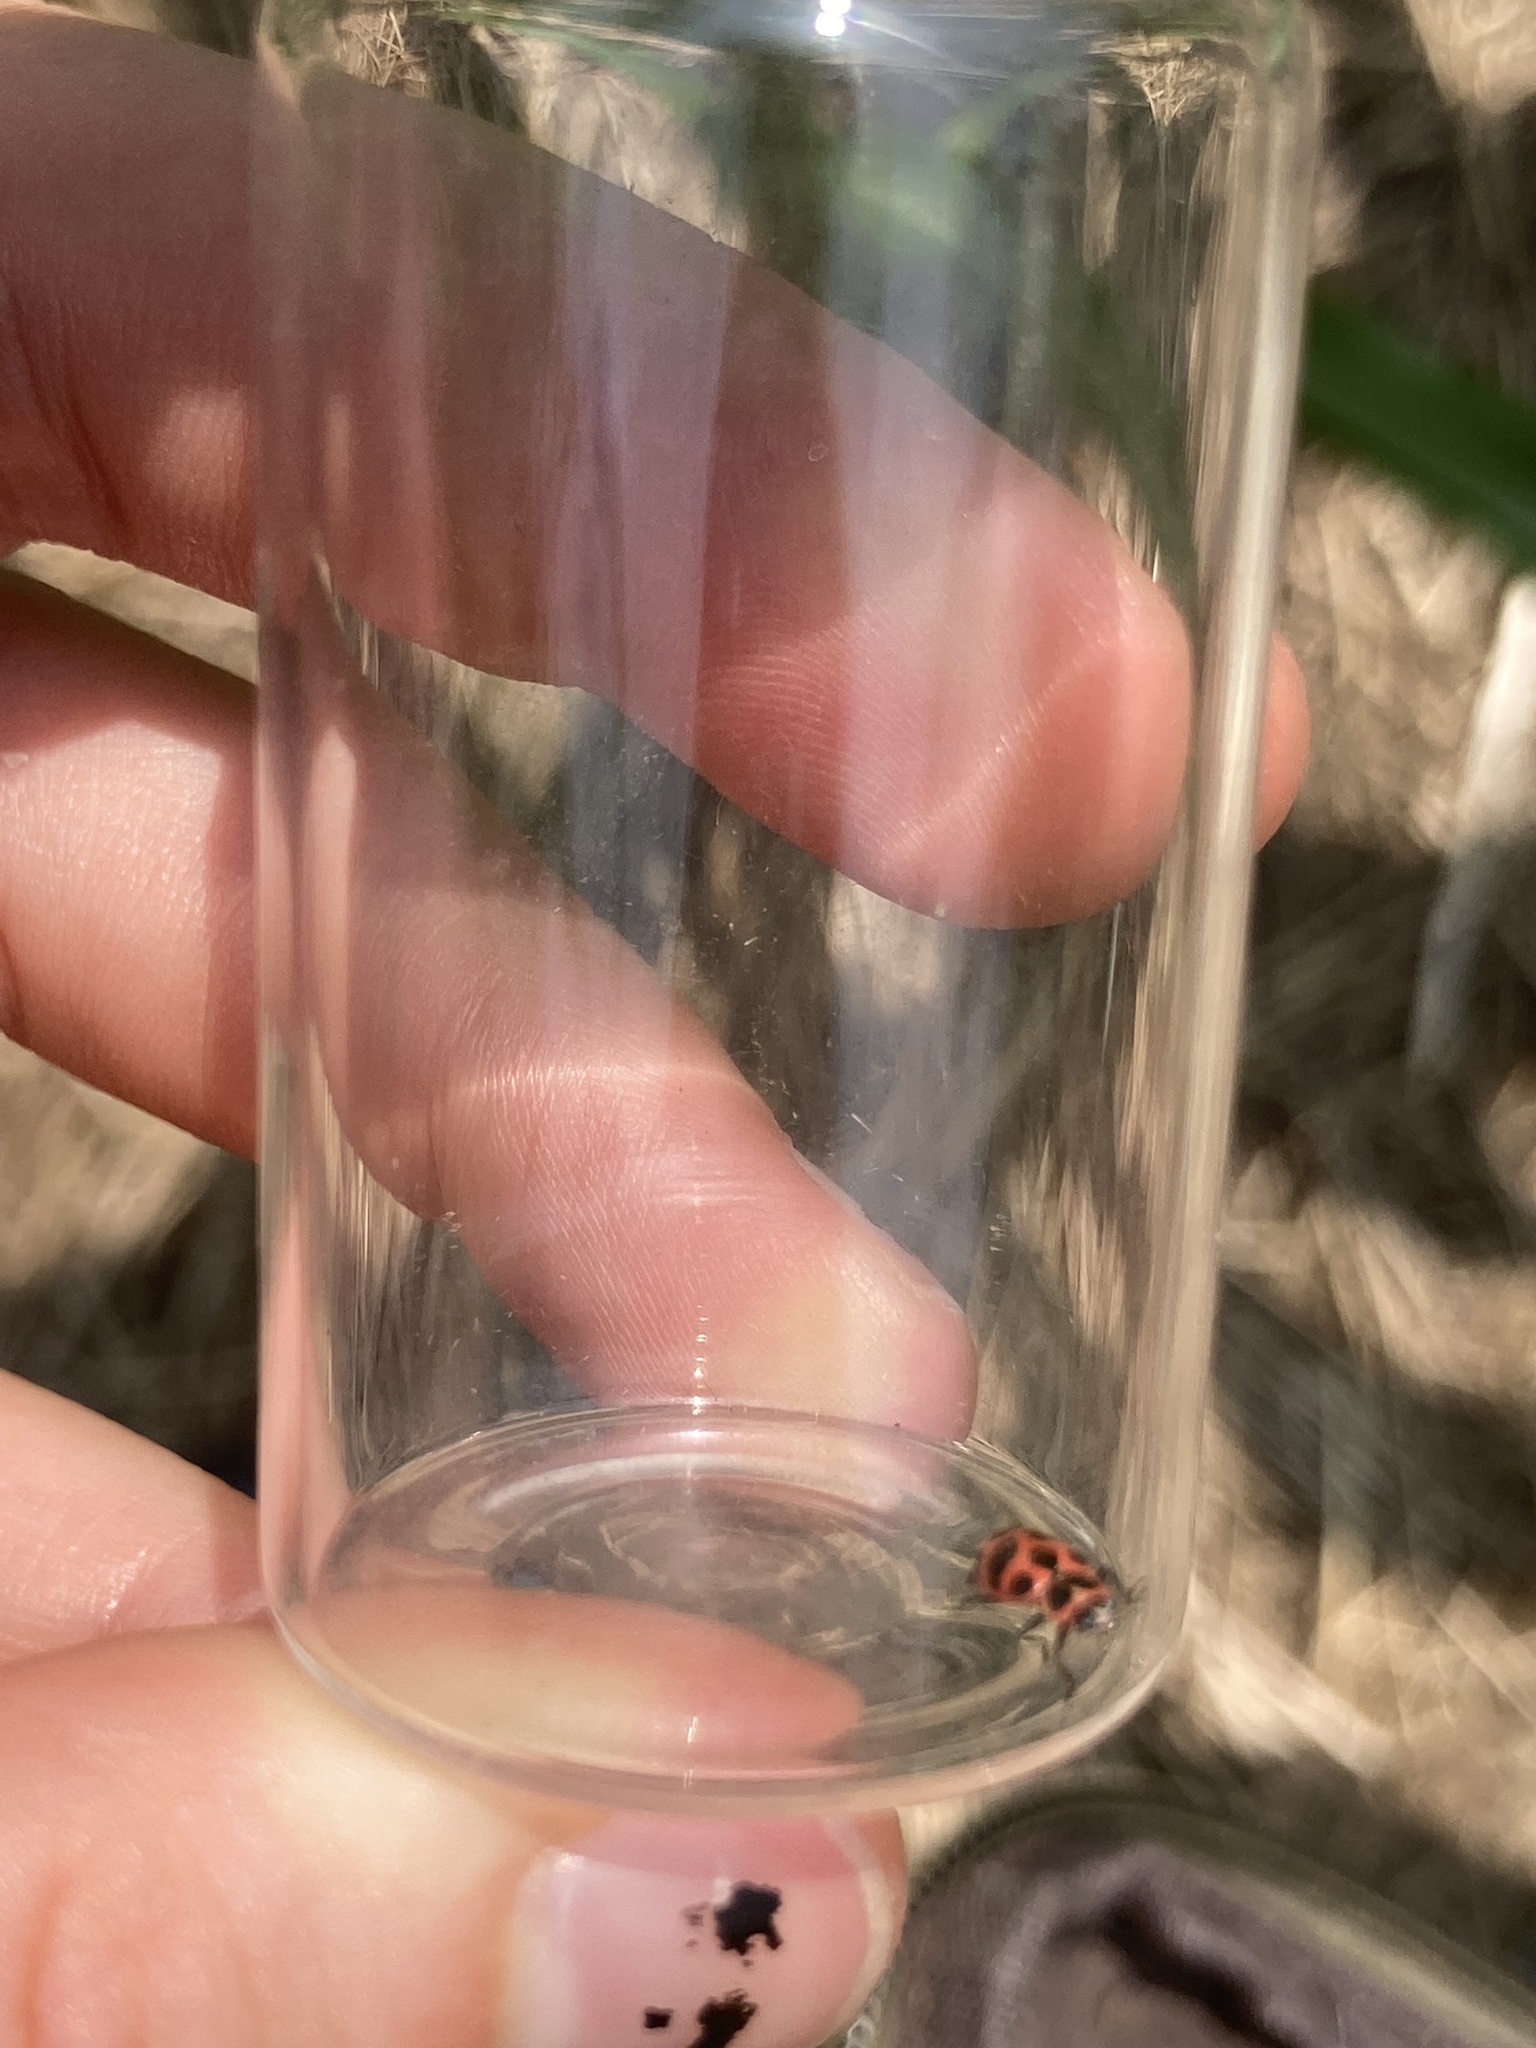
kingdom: Animalia
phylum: Arthropoda
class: Insecta
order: Coleoptera
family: Coccinellidae
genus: Coleomegilla
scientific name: Coleomegilla maculata
